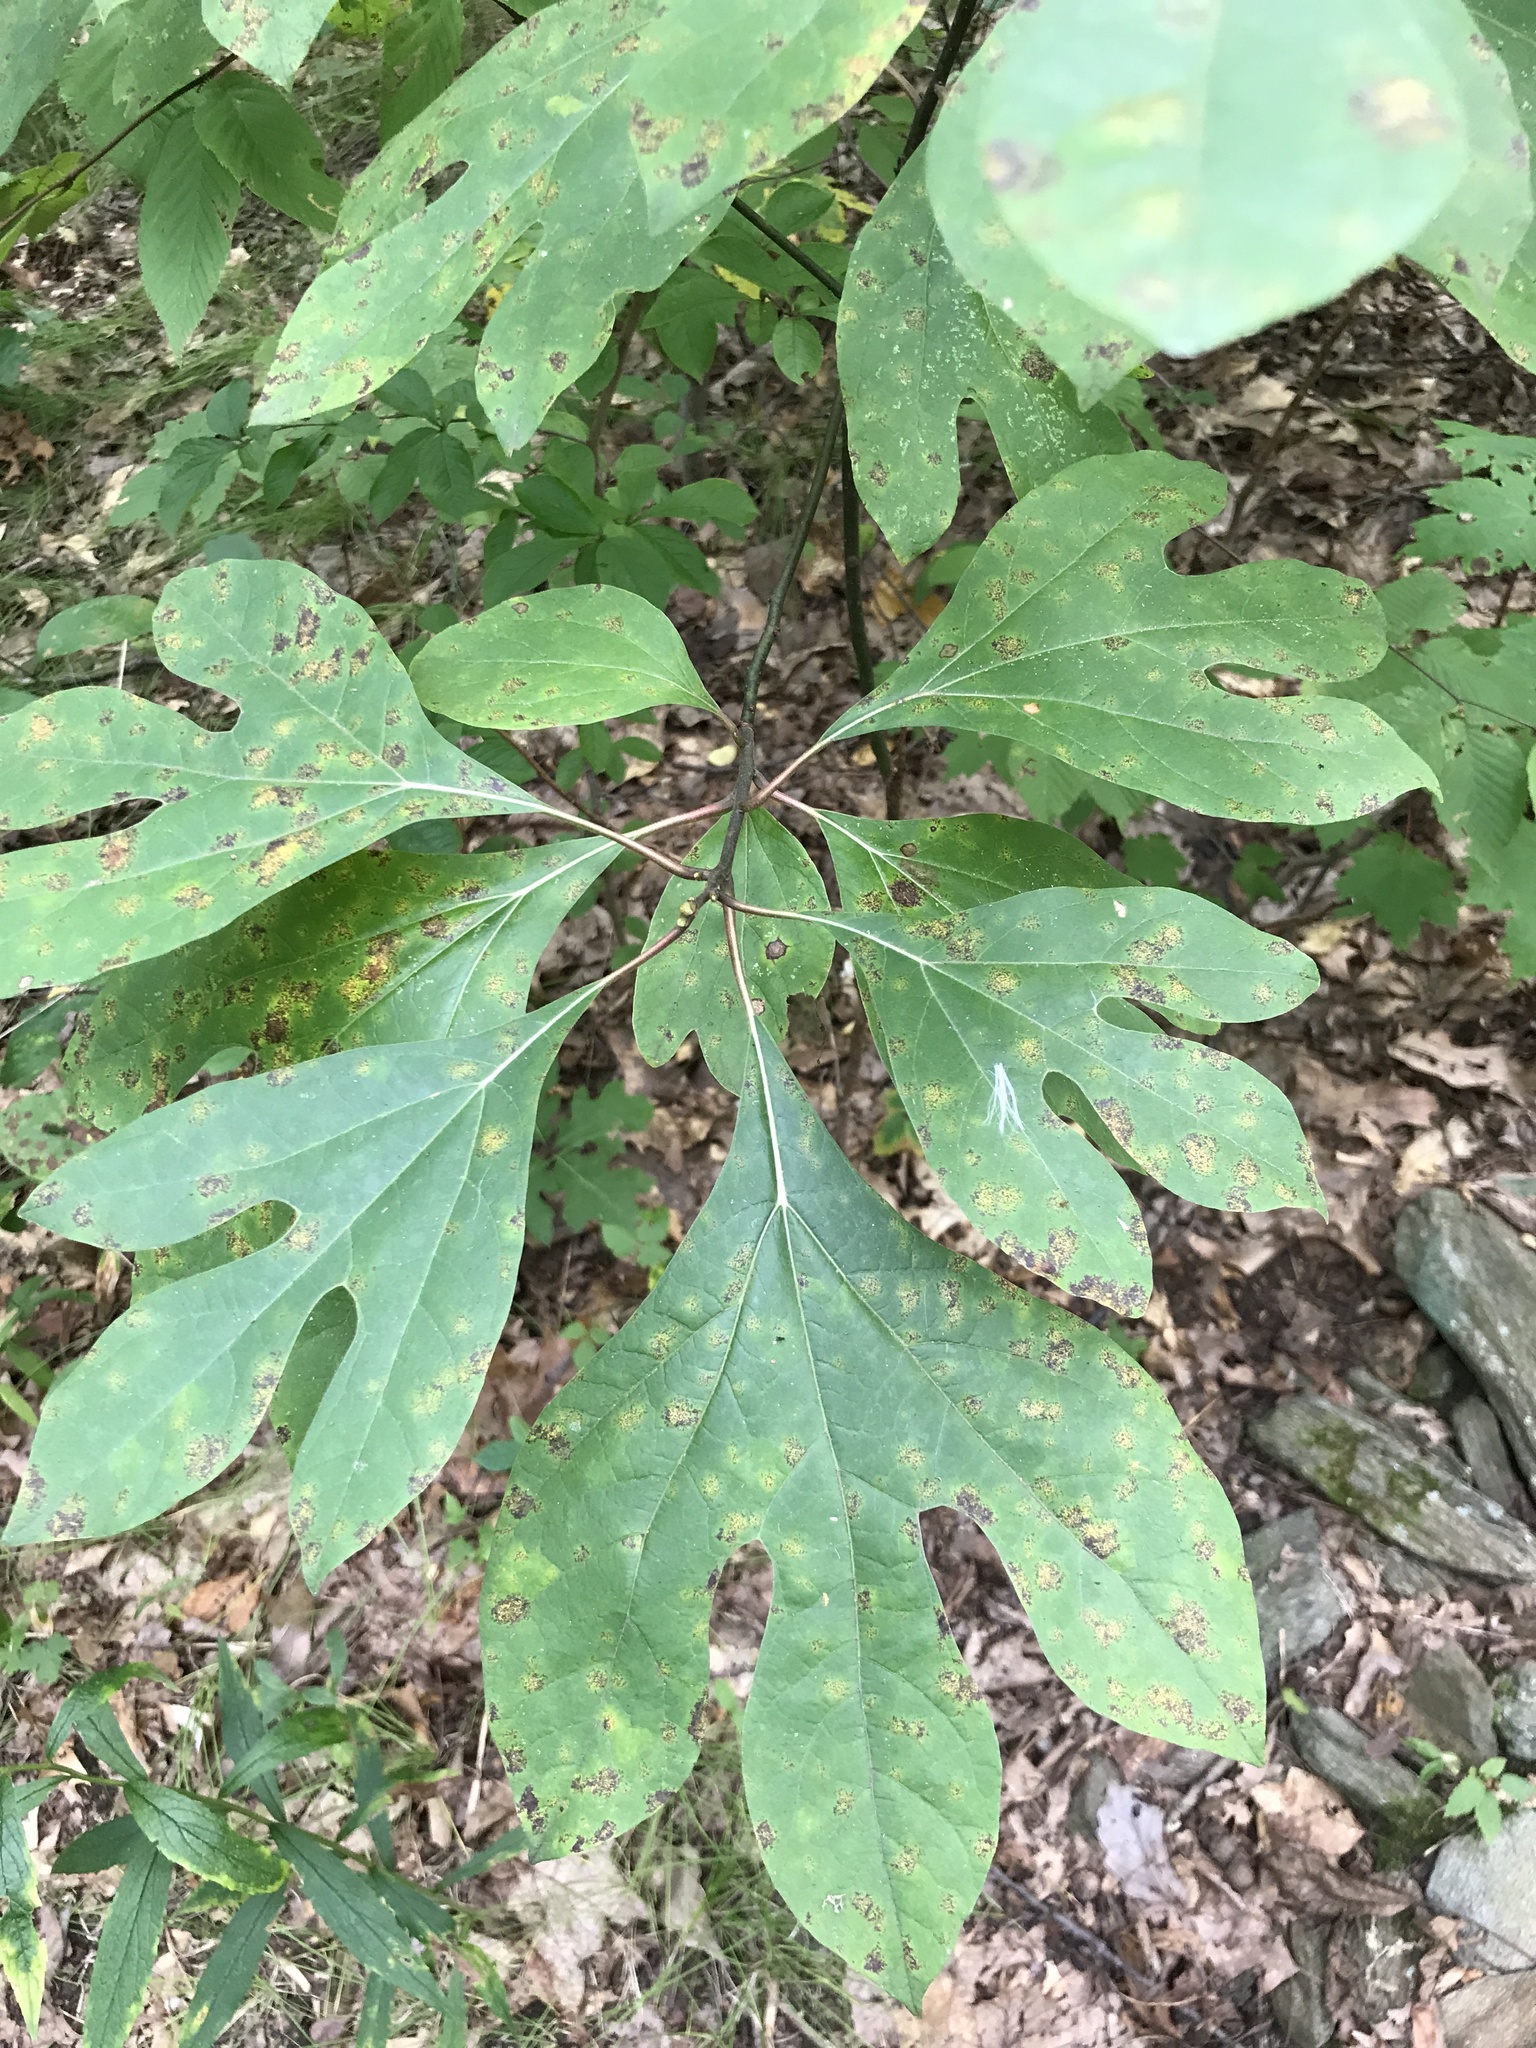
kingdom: Plantae
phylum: Tracheophyta
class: Magnoliopsida
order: Laurales
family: Lauraceae
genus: Sassafras
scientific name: Sassafras albidum
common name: Sassafras
